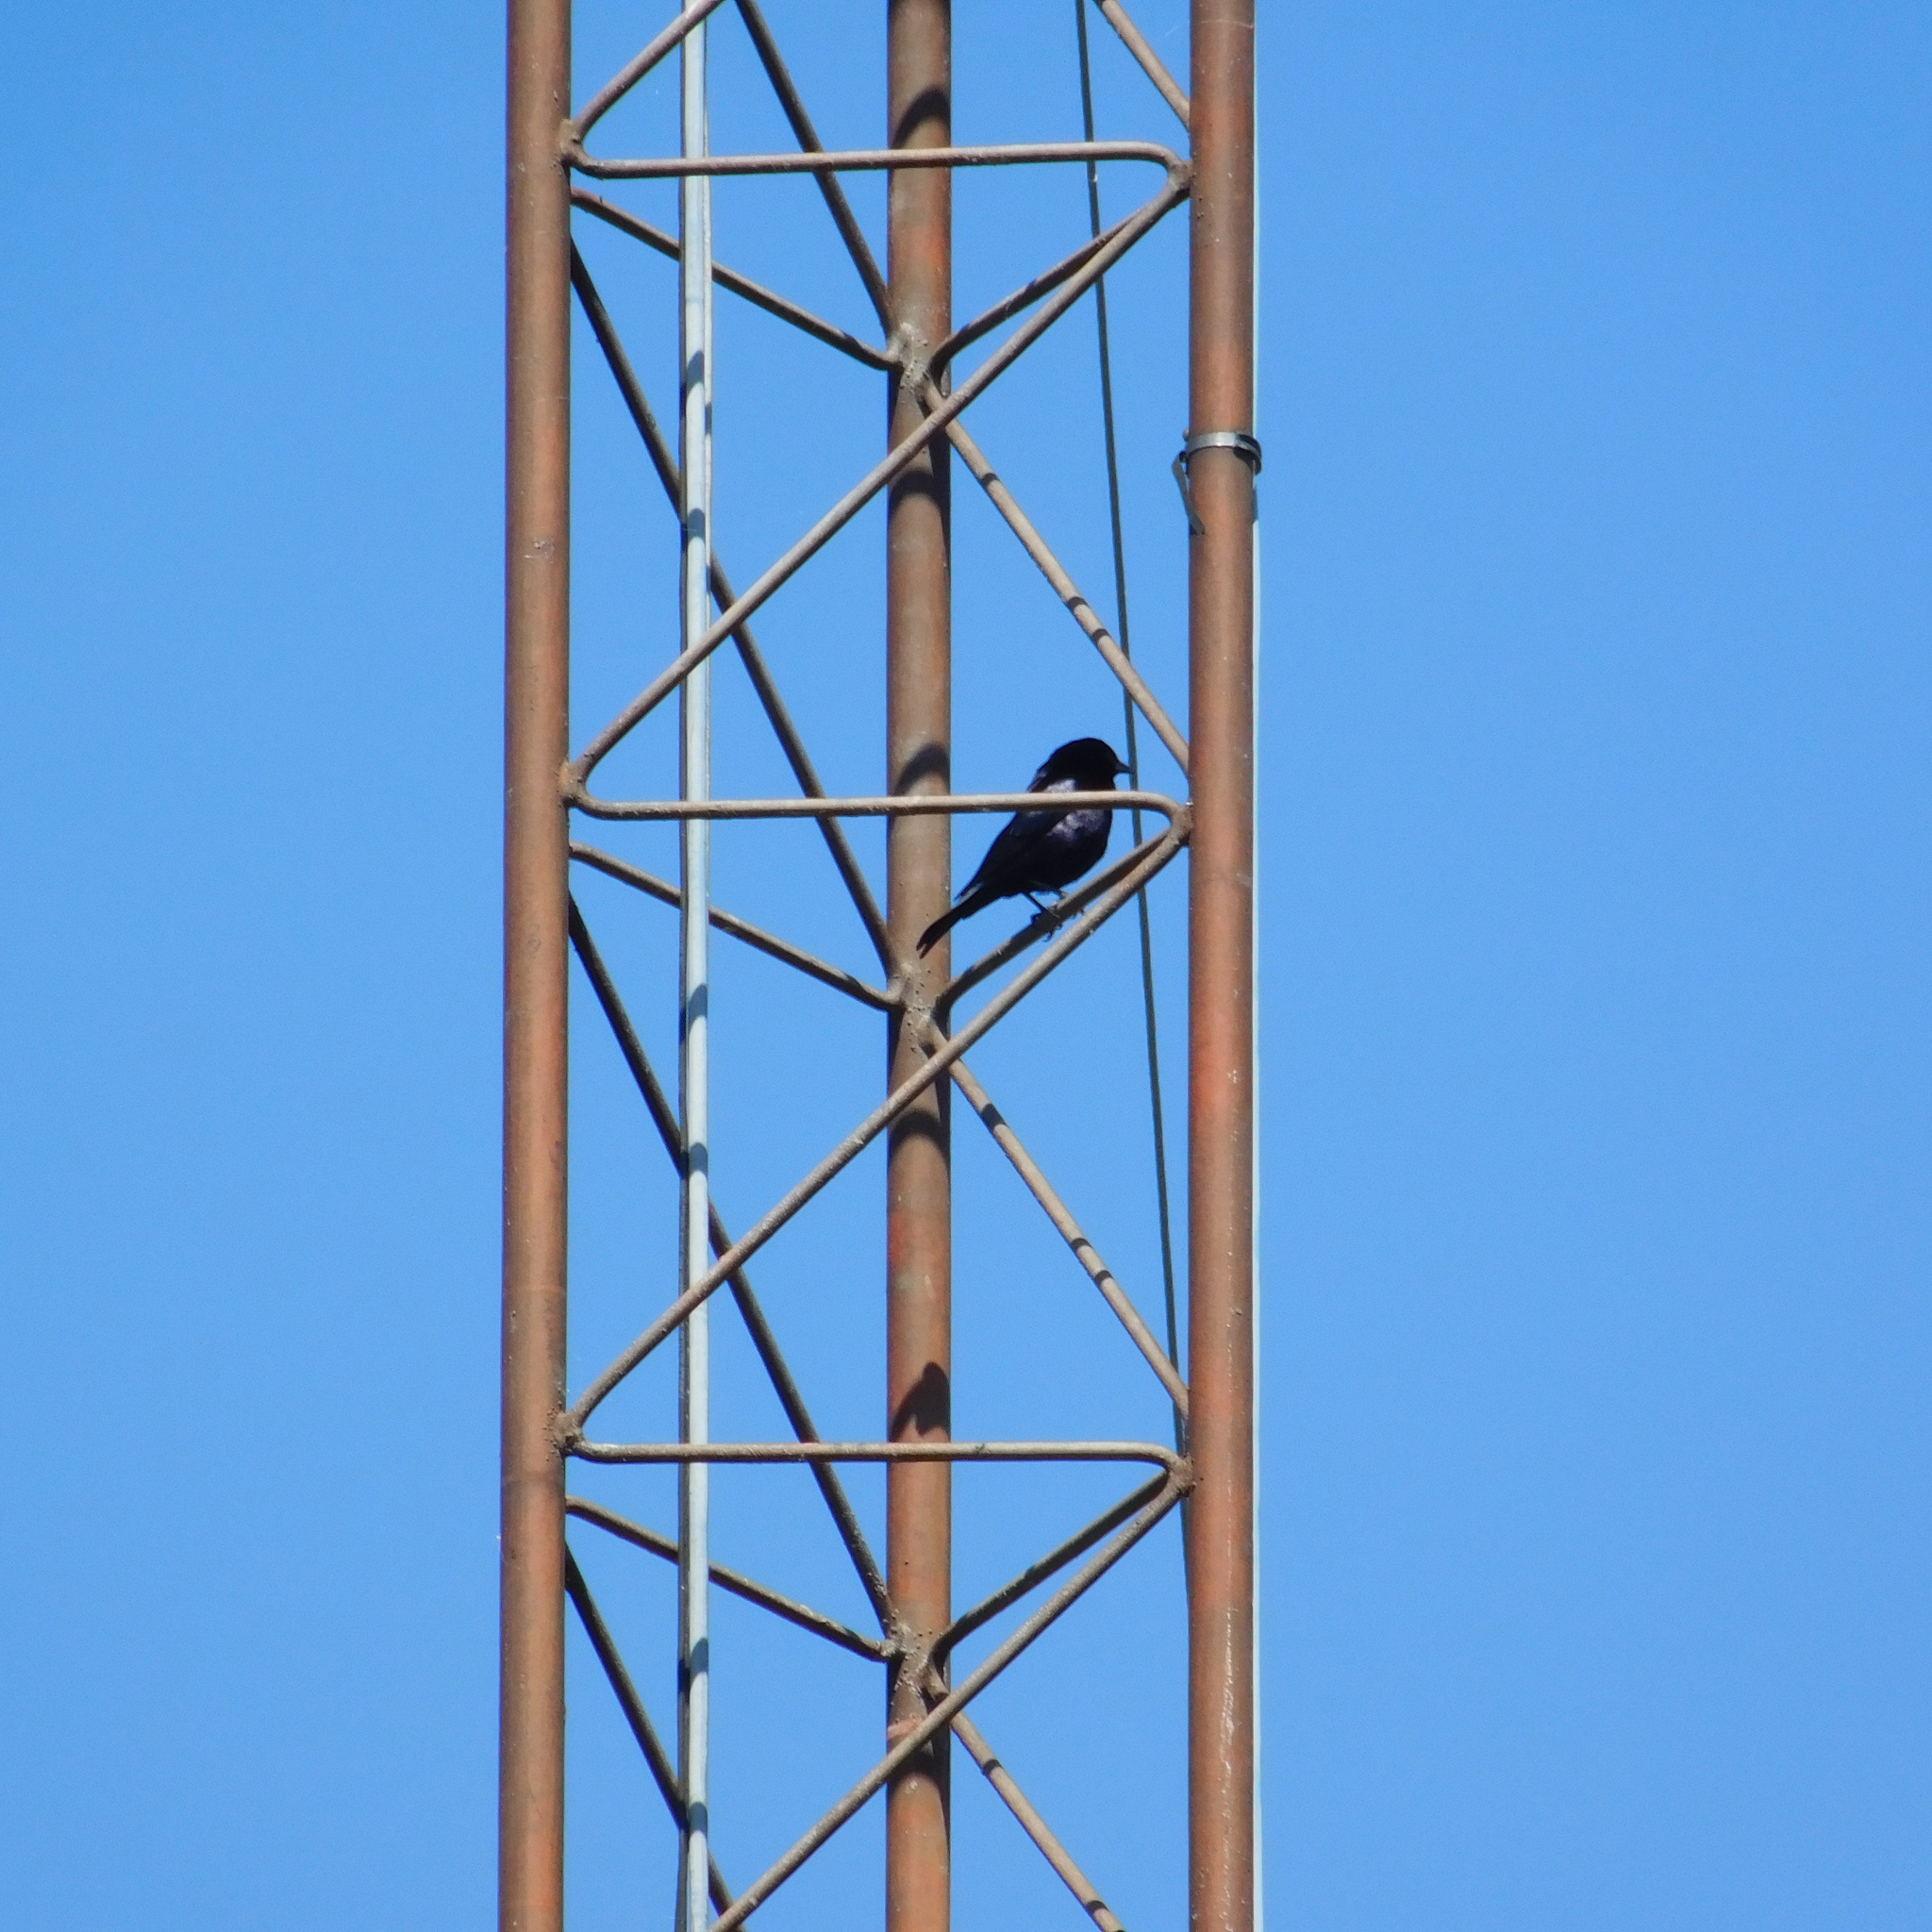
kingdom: Animalia
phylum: Chordata
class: Aves
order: Passeriformes
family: Icteridae
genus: Molothrus
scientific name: Molothrus bonariensis
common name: Shiny cowbird
